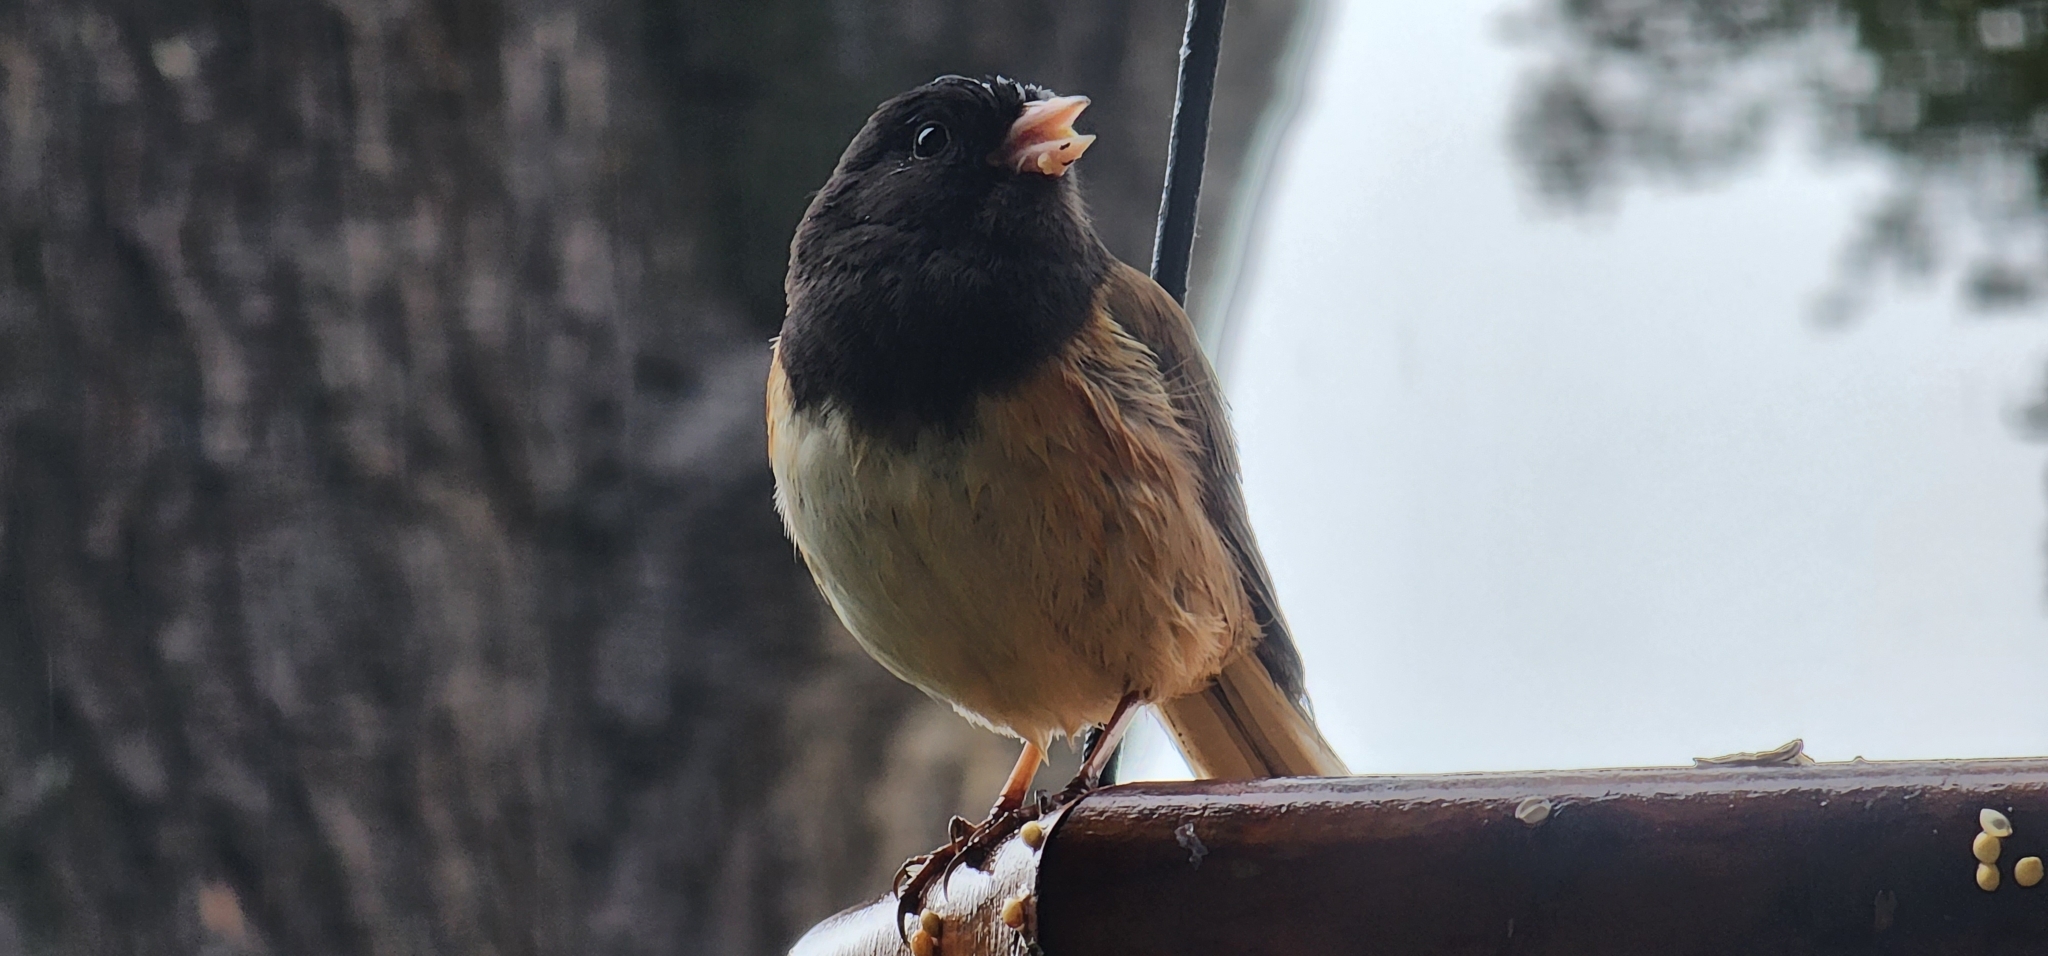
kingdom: Animalia
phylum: Chordata
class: Aves
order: Passeriformes
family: Passerellidae
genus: Junco
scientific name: Junco hyemalis
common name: Dark-eyed junco
